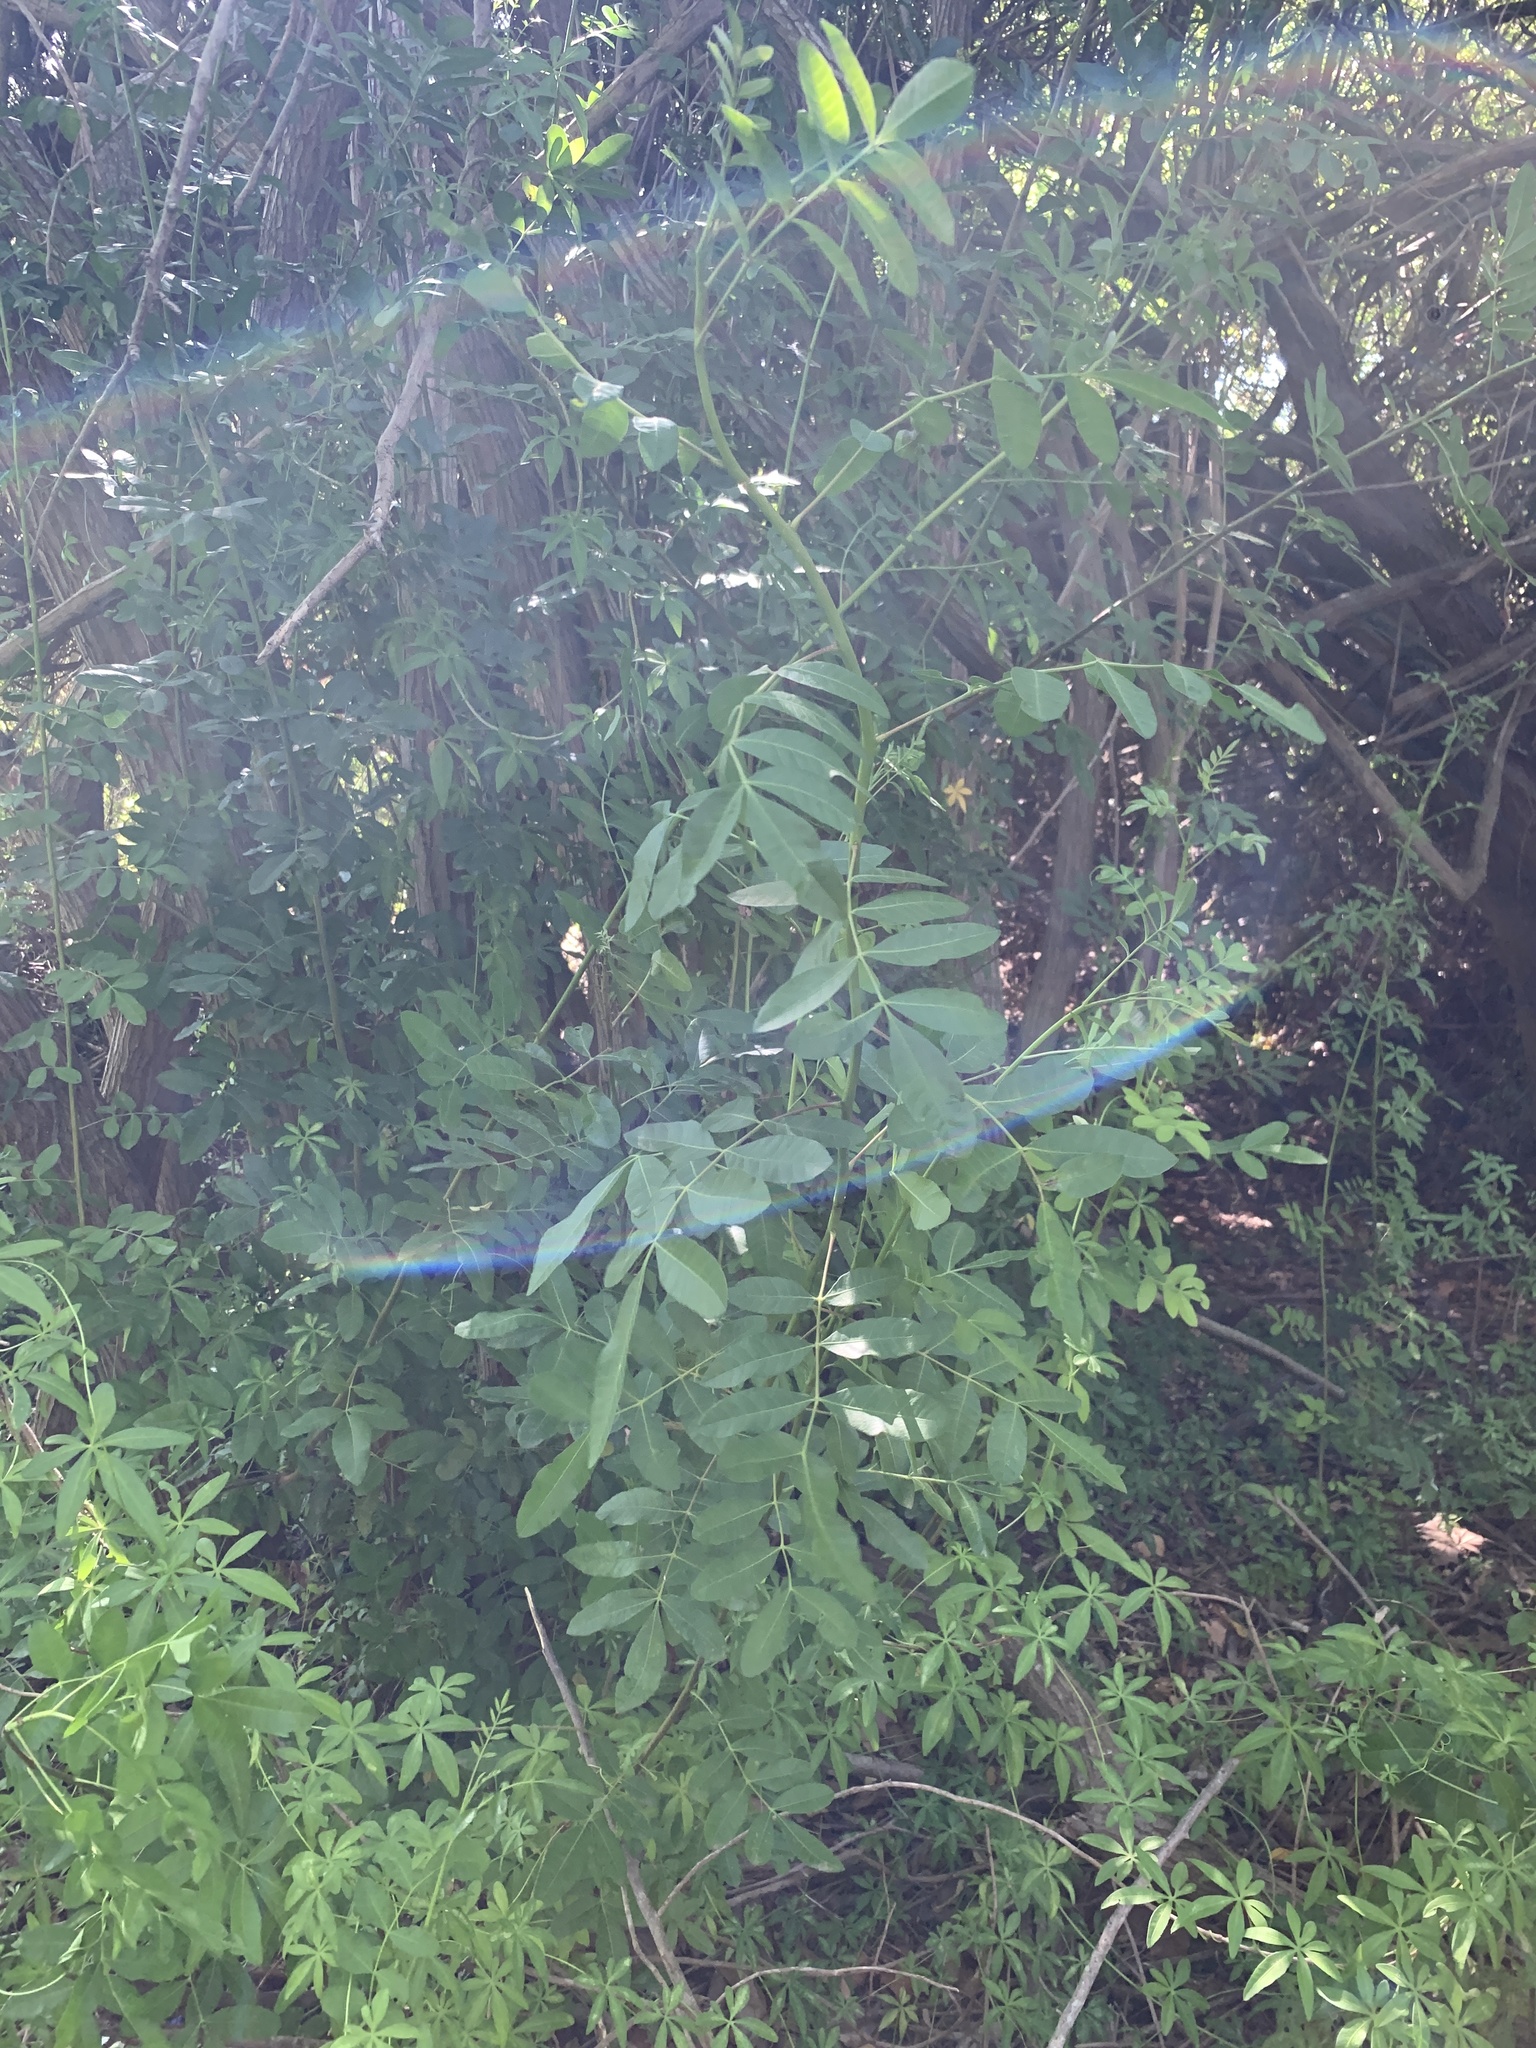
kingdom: Plantae
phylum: Tracheophyta
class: Magnoliopsida
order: Sapindales
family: Anacardiaceae
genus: Schinus
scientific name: Schinus terebinthifolia
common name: Brazilian peppertree
